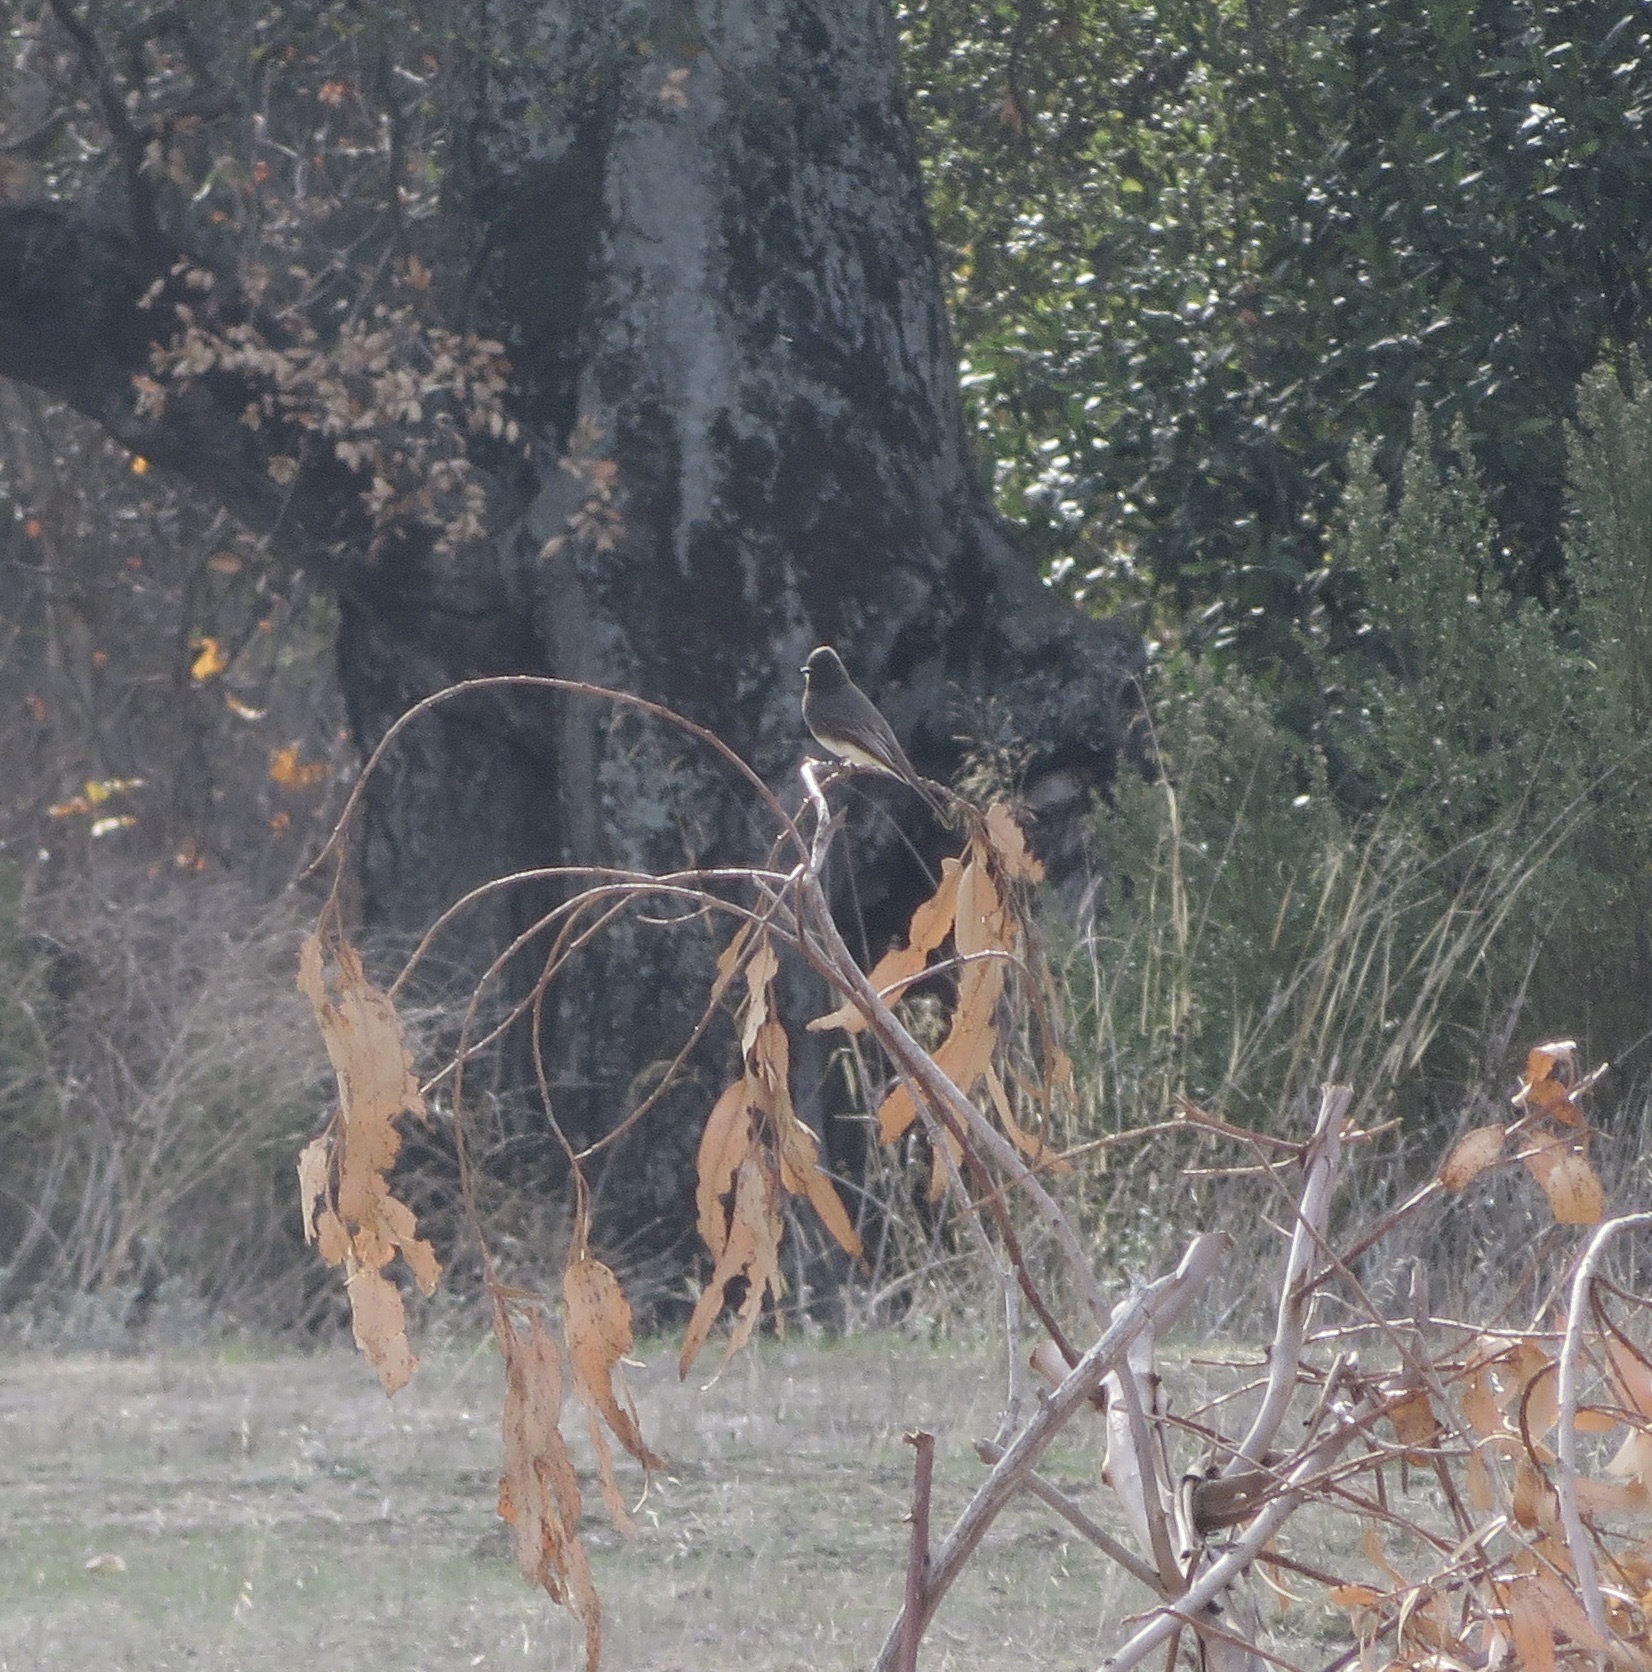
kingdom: Animalia
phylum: Chordata
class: Aves
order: Passeriformes
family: Tyrannidae
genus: Sayornis
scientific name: Sayornis nigricans
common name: Black phoebe
